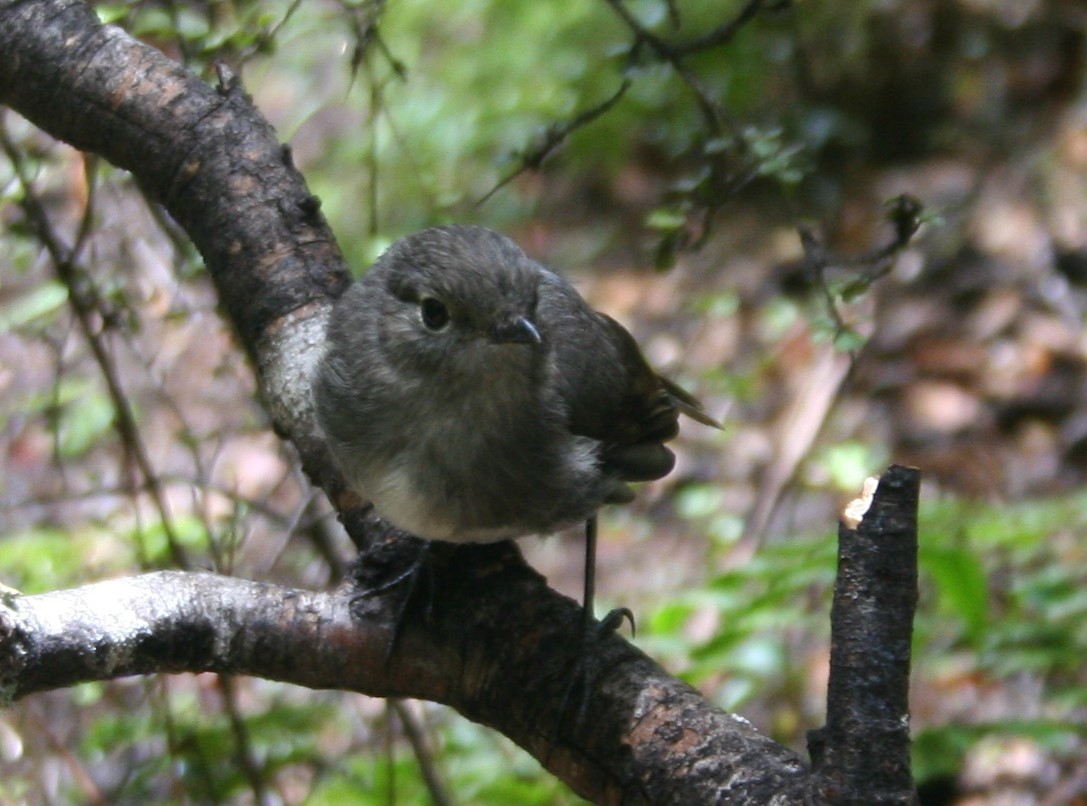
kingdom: Animalia
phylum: Chordata
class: Aves
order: Passeriformes
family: Petroicidae
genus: Petroica
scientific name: Petroica australis
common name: New zealand robin
